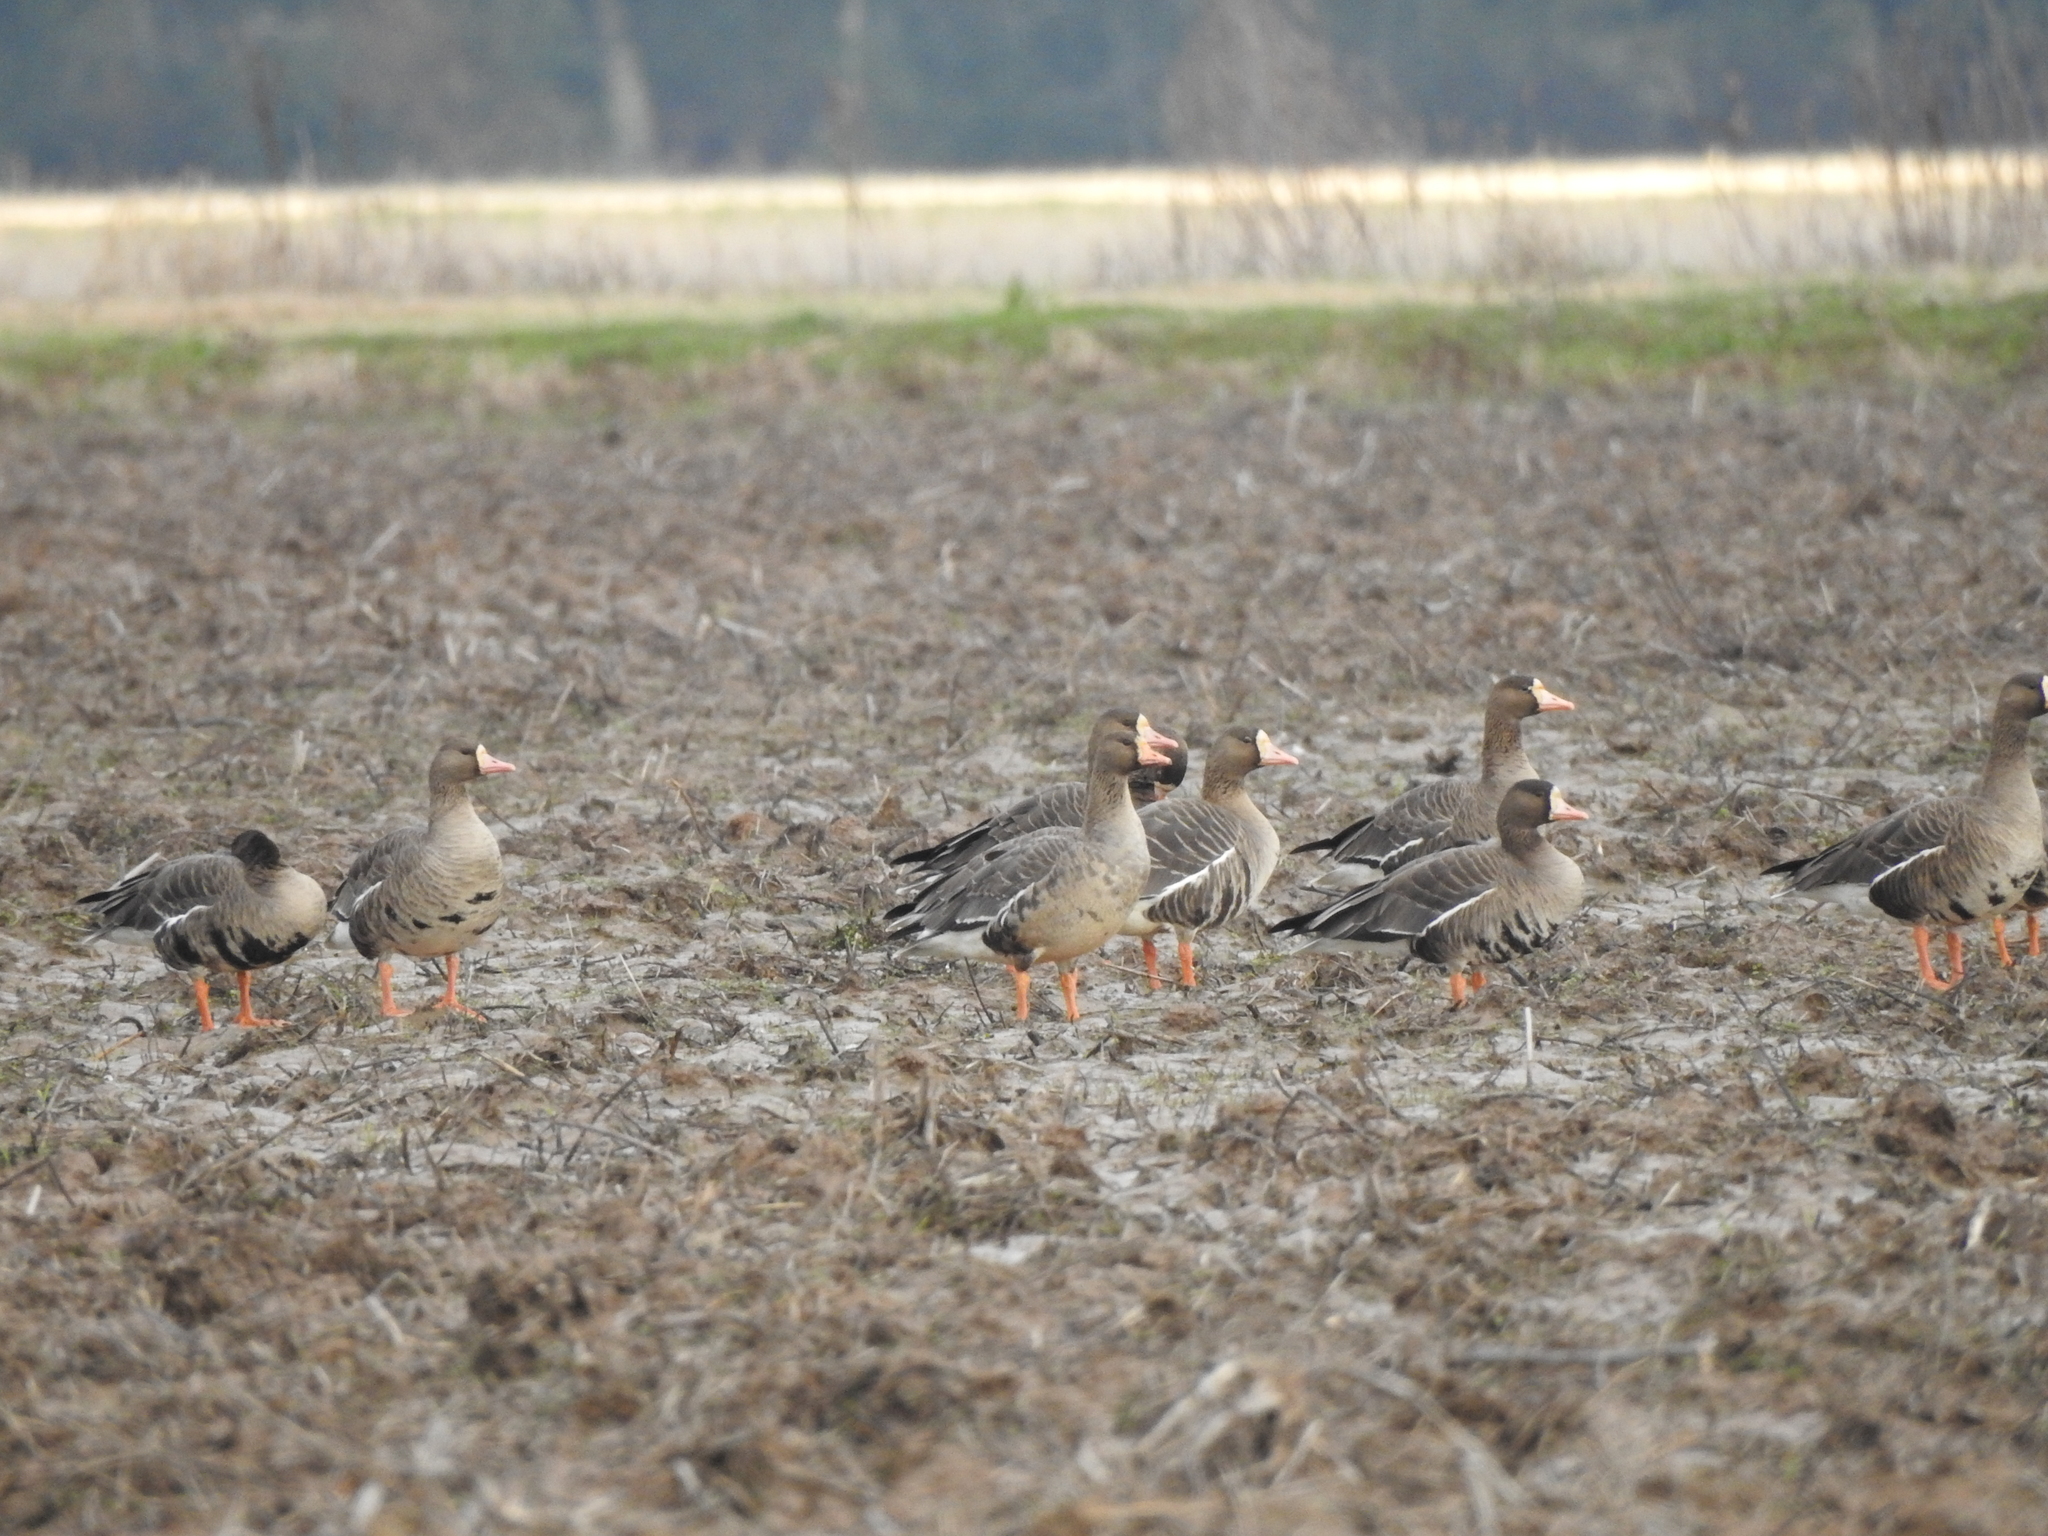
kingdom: Animalia
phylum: Chordata
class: Aves
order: Anseriformes
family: Anatidae
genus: Anser
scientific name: Anser albifrons
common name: Greater white-fronted goose
